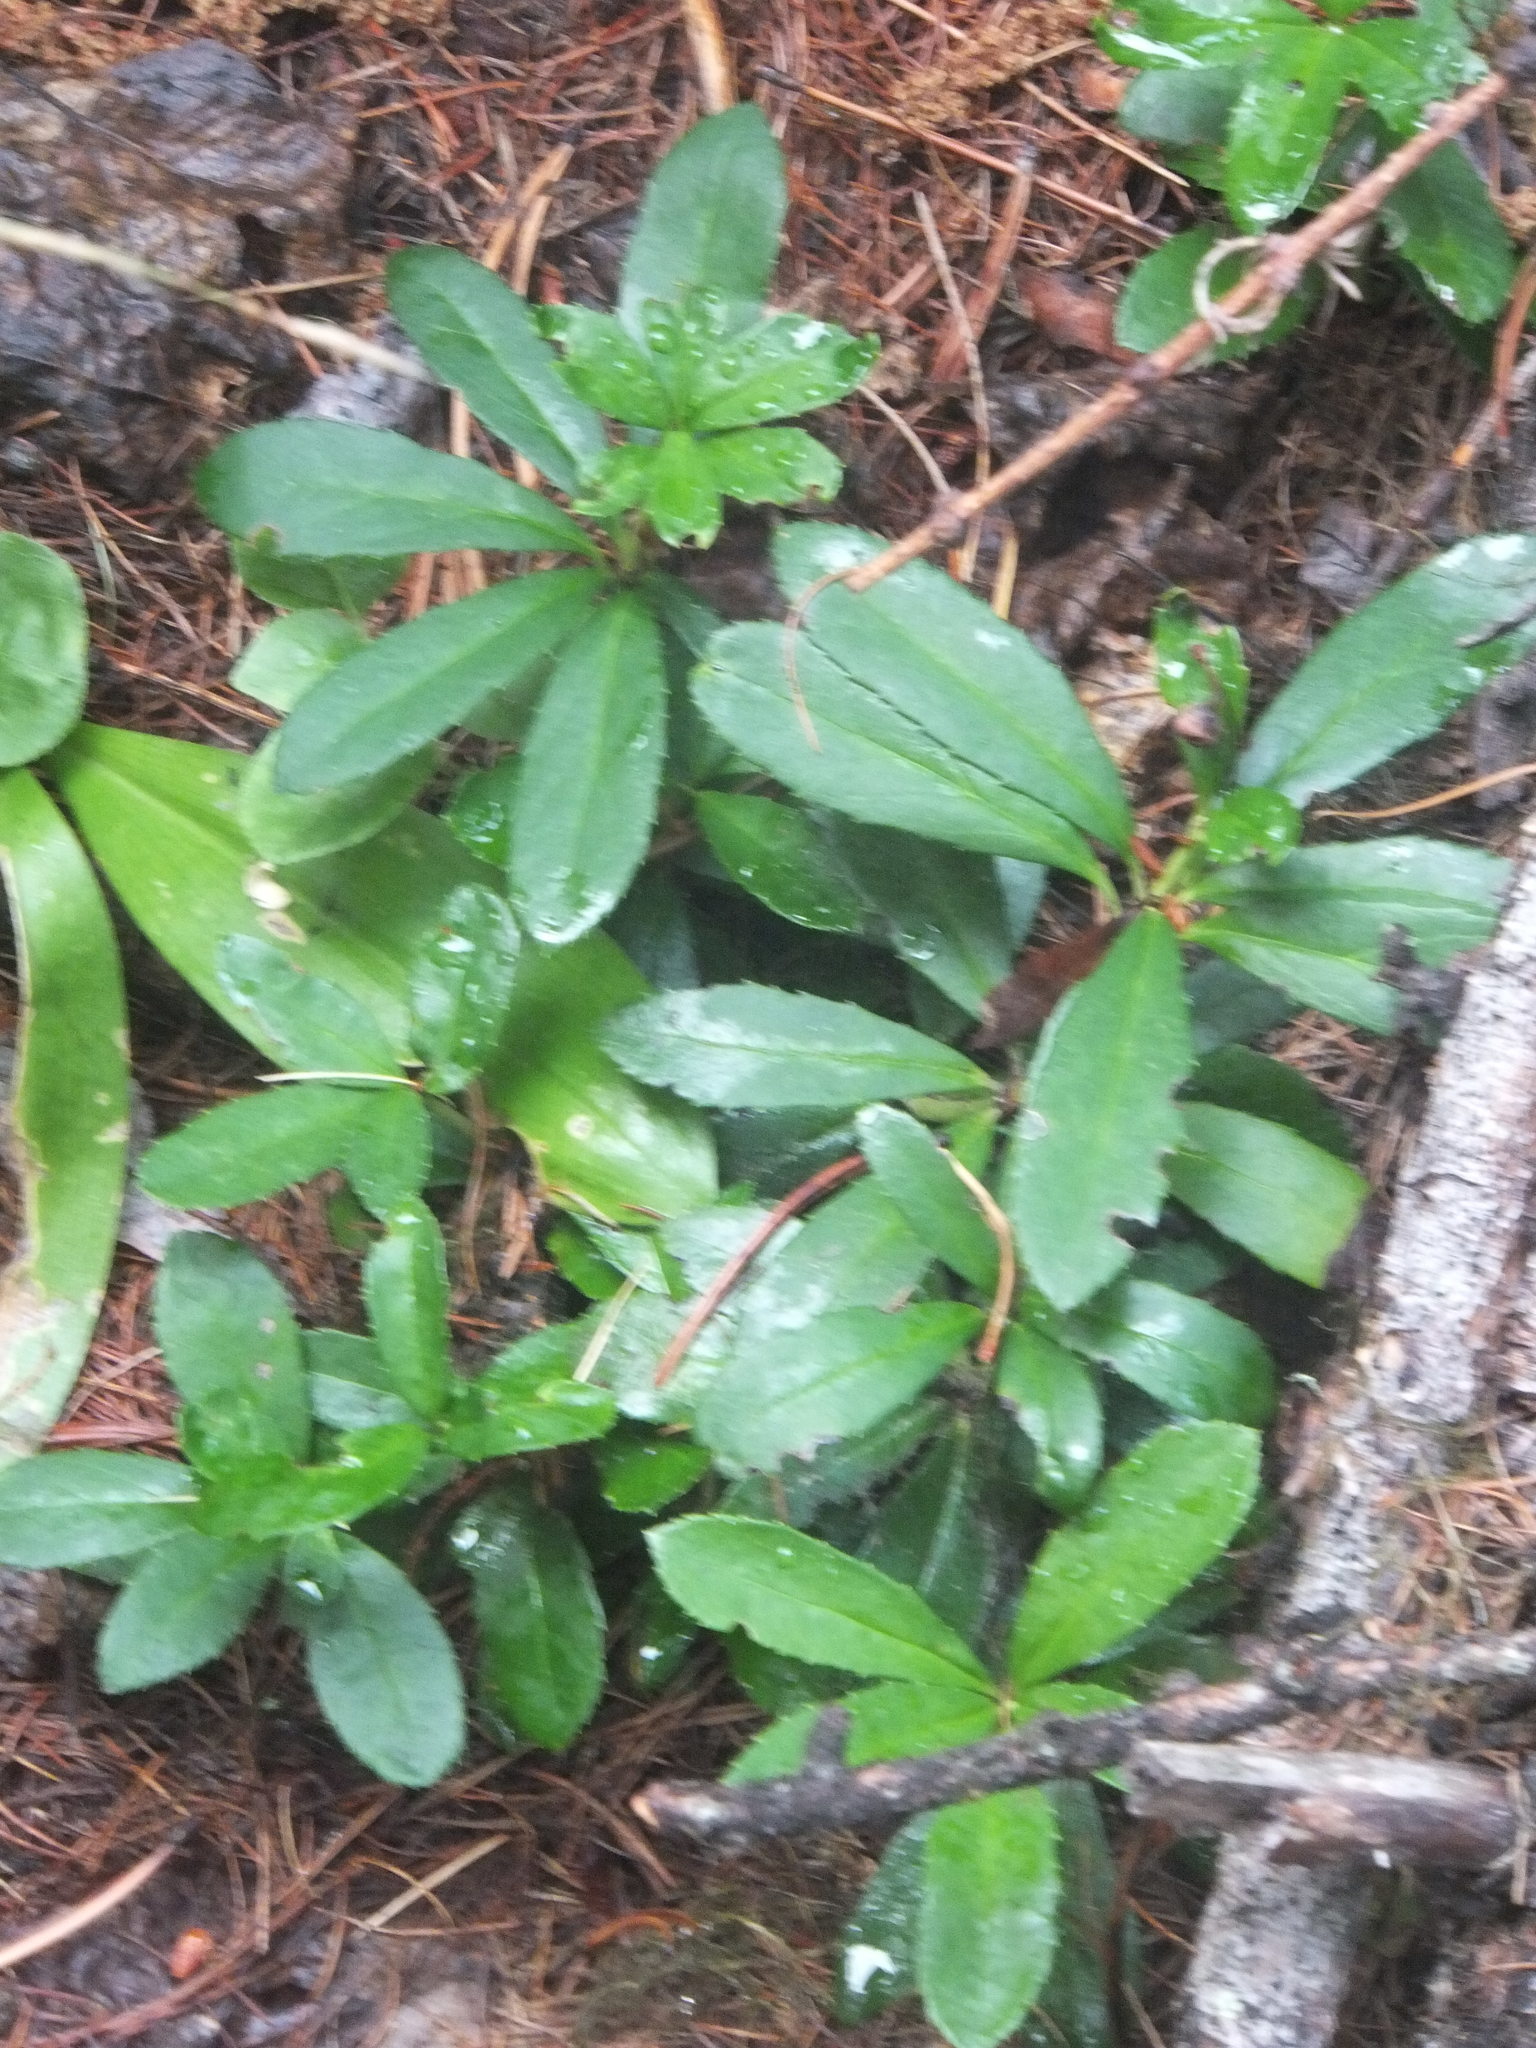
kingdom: Plantae
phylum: Tracheophyta
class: Magnoliopsida
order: Ericales
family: Ericaceae
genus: Chimaphila
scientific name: Chimaphila umbellata
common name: Pipsissewa
